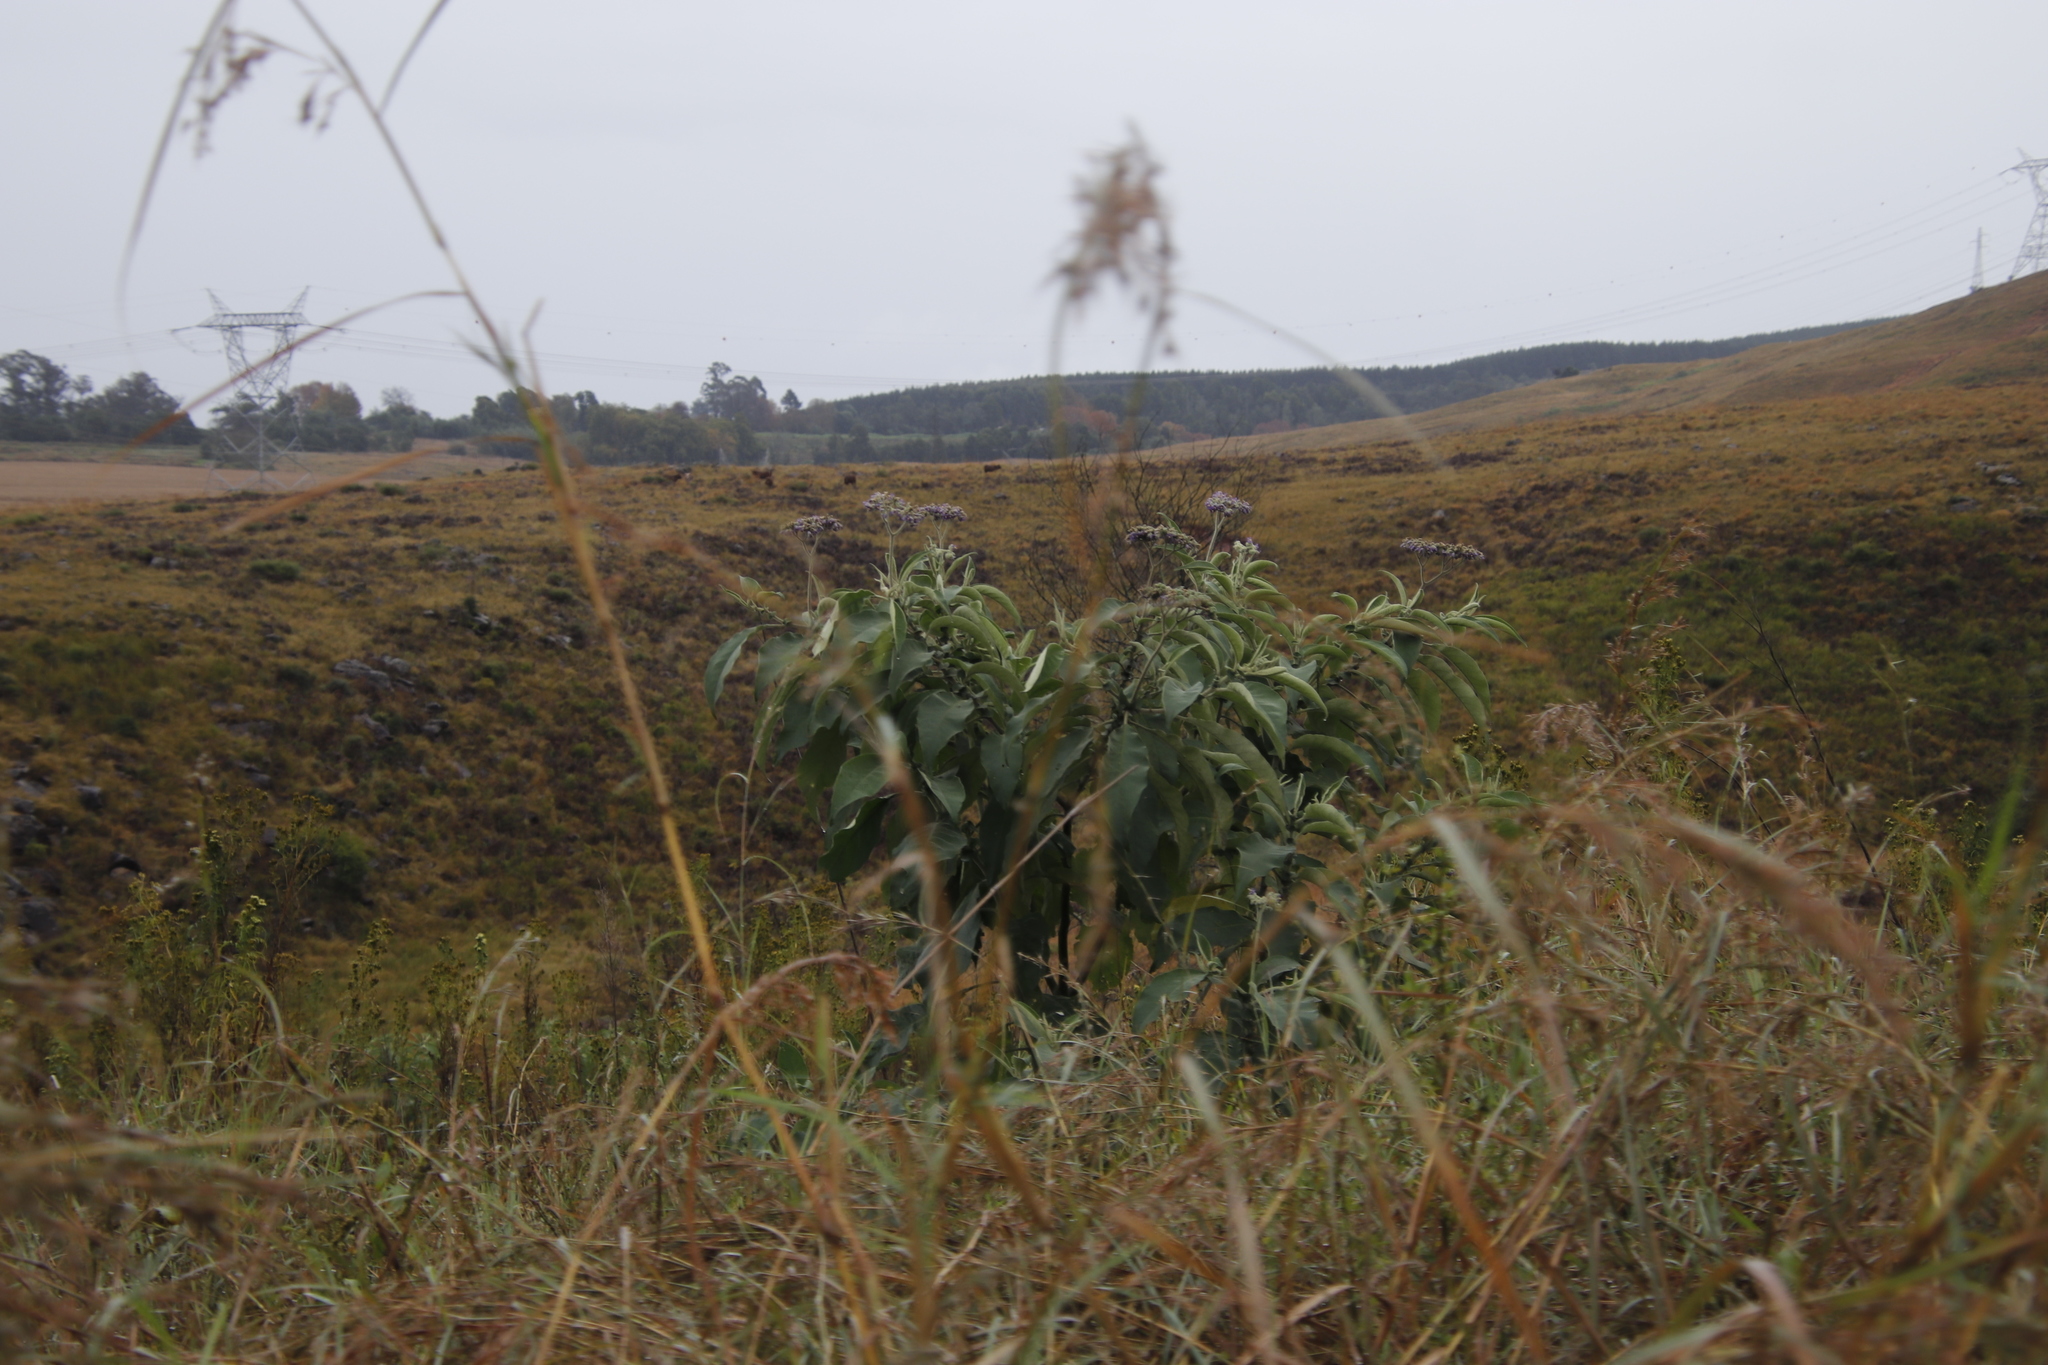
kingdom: Plantae
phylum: Tracheophyta
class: Magnoliopsida
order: Solanales
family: Solanaceae
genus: Solanum
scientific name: Solanum mauritianum
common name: Earleaf nightshade
